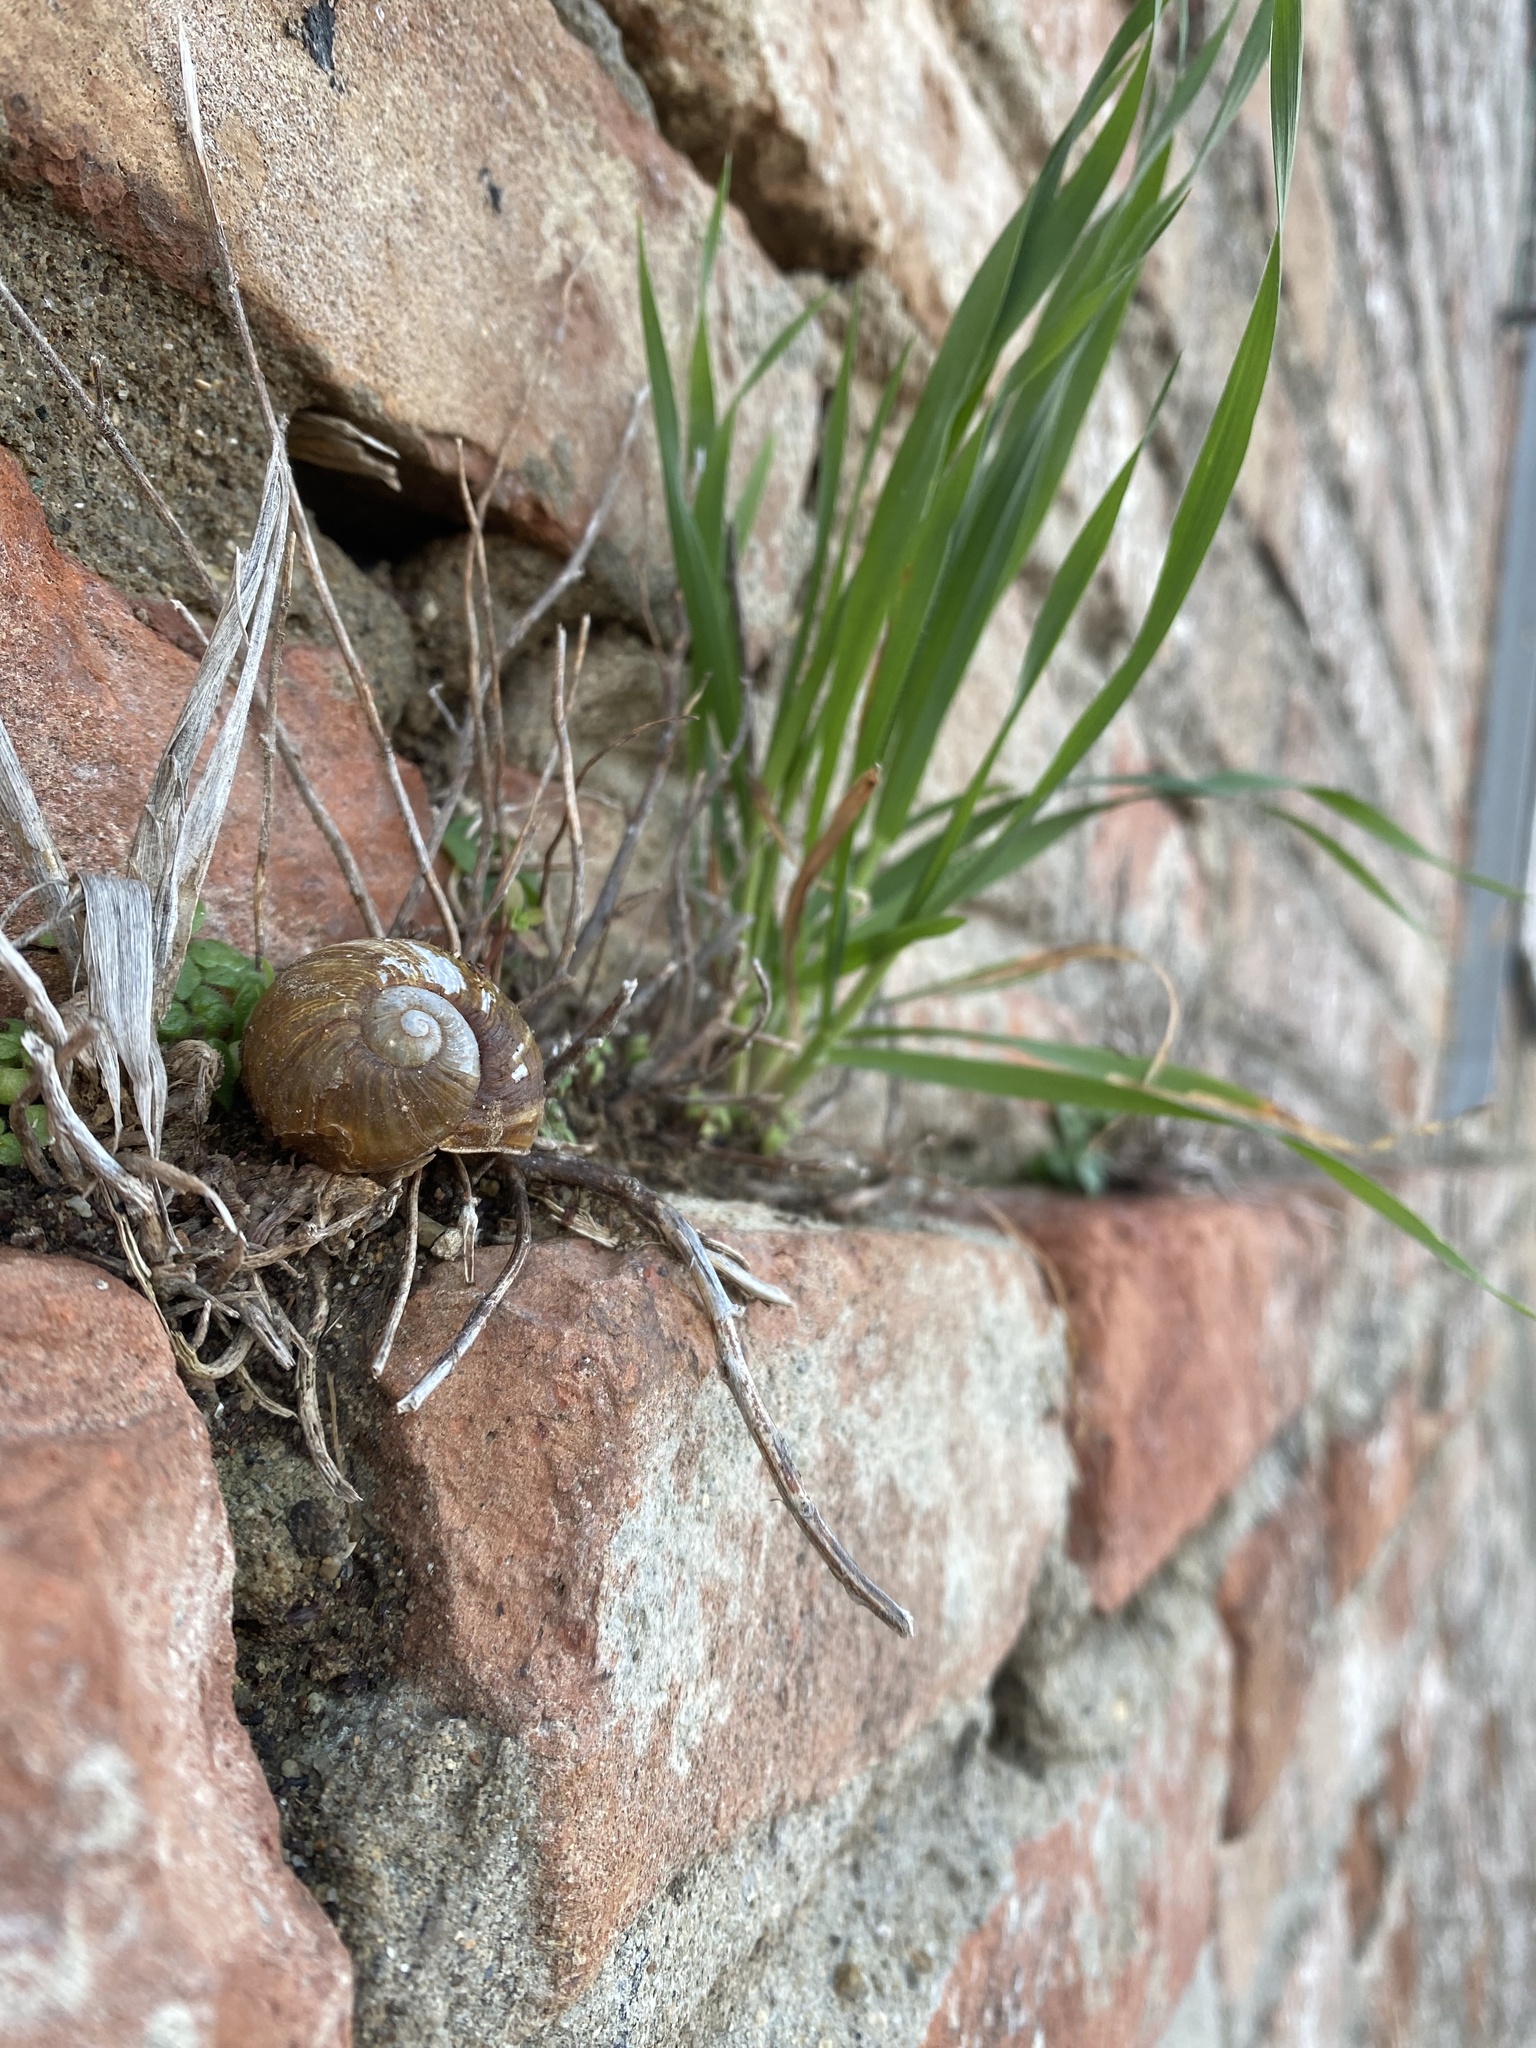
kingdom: Animalia
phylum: Mollusca
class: Gastropoda
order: Stylommatophora
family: Helicidae
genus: Cantareus
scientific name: Cantareus apertus
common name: Green gardensnail
